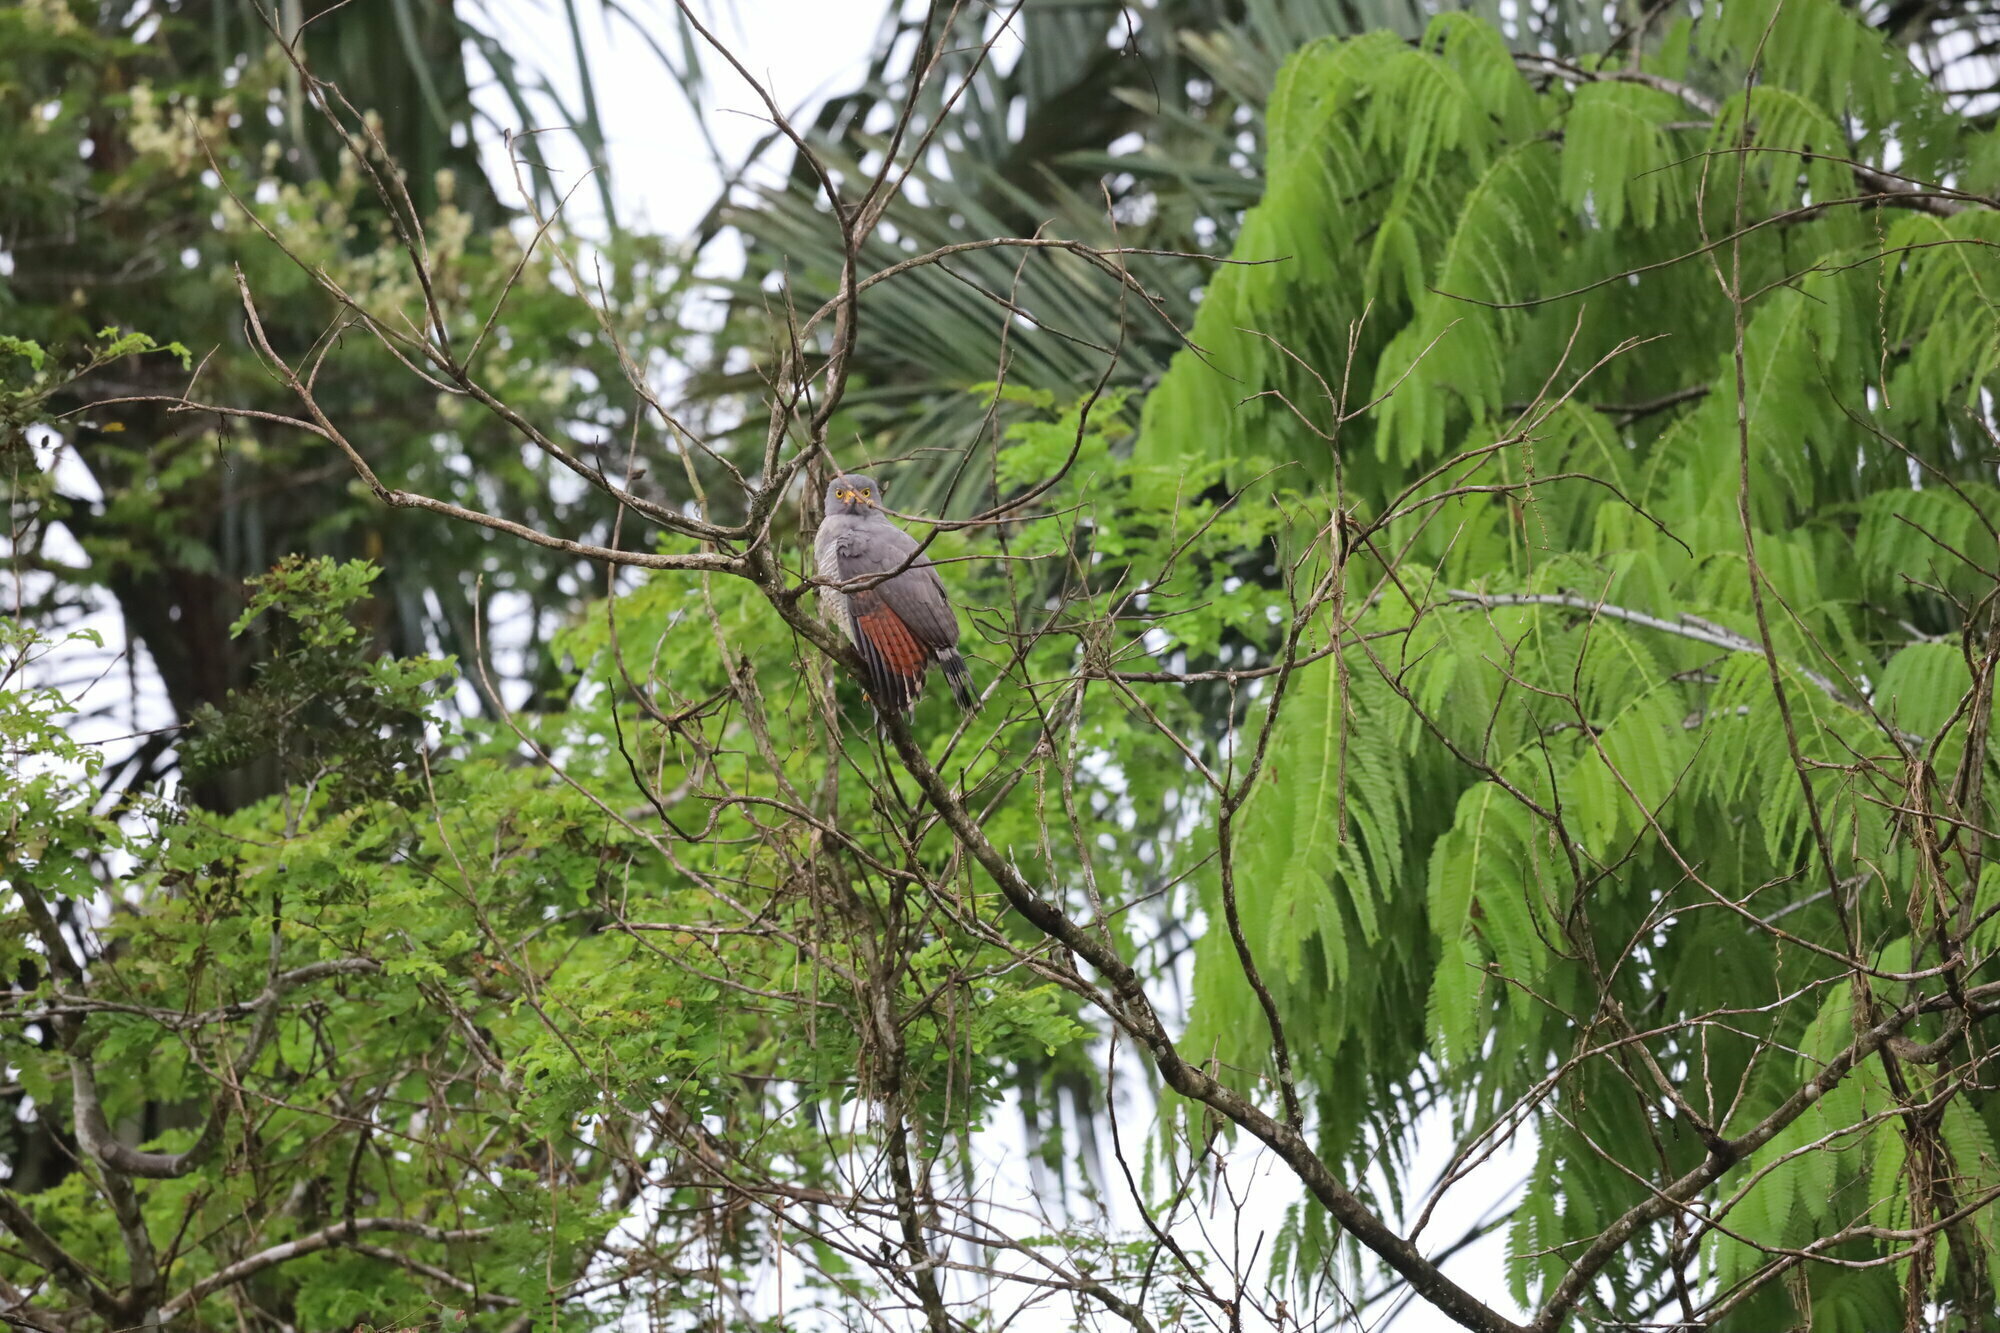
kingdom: Animalia
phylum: Chordata
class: Aves
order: Accipitriformes
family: Accipitridae
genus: Rupornis
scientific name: Rupornis magnirostris
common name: Roadside hawk
